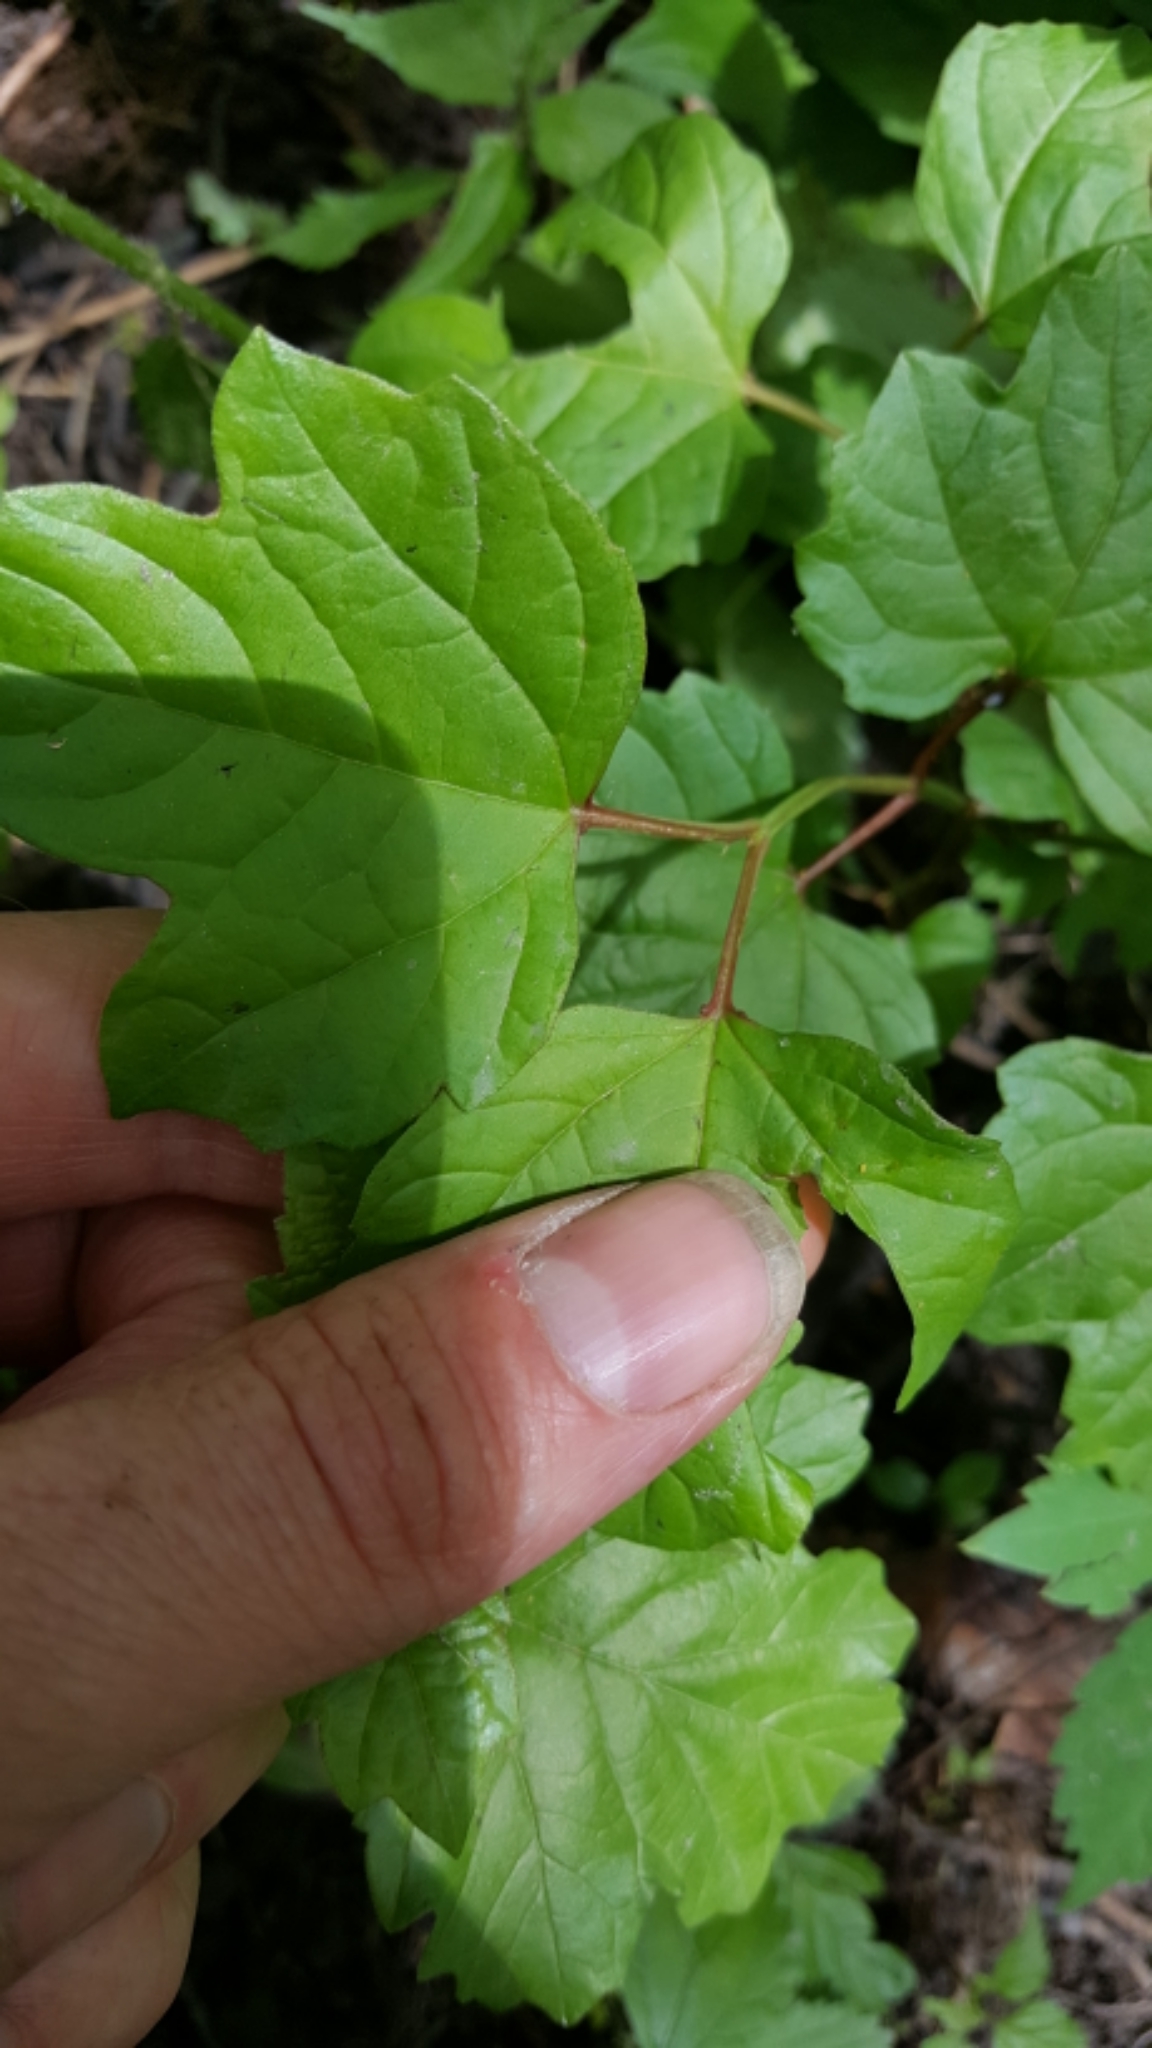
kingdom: Plantae
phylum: Tracheophyta
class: Magnoliopsida
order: Dipsacales
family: Viburnaceae
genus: Viburnum
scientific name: Viburnum opulus
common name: Guelder-rose
